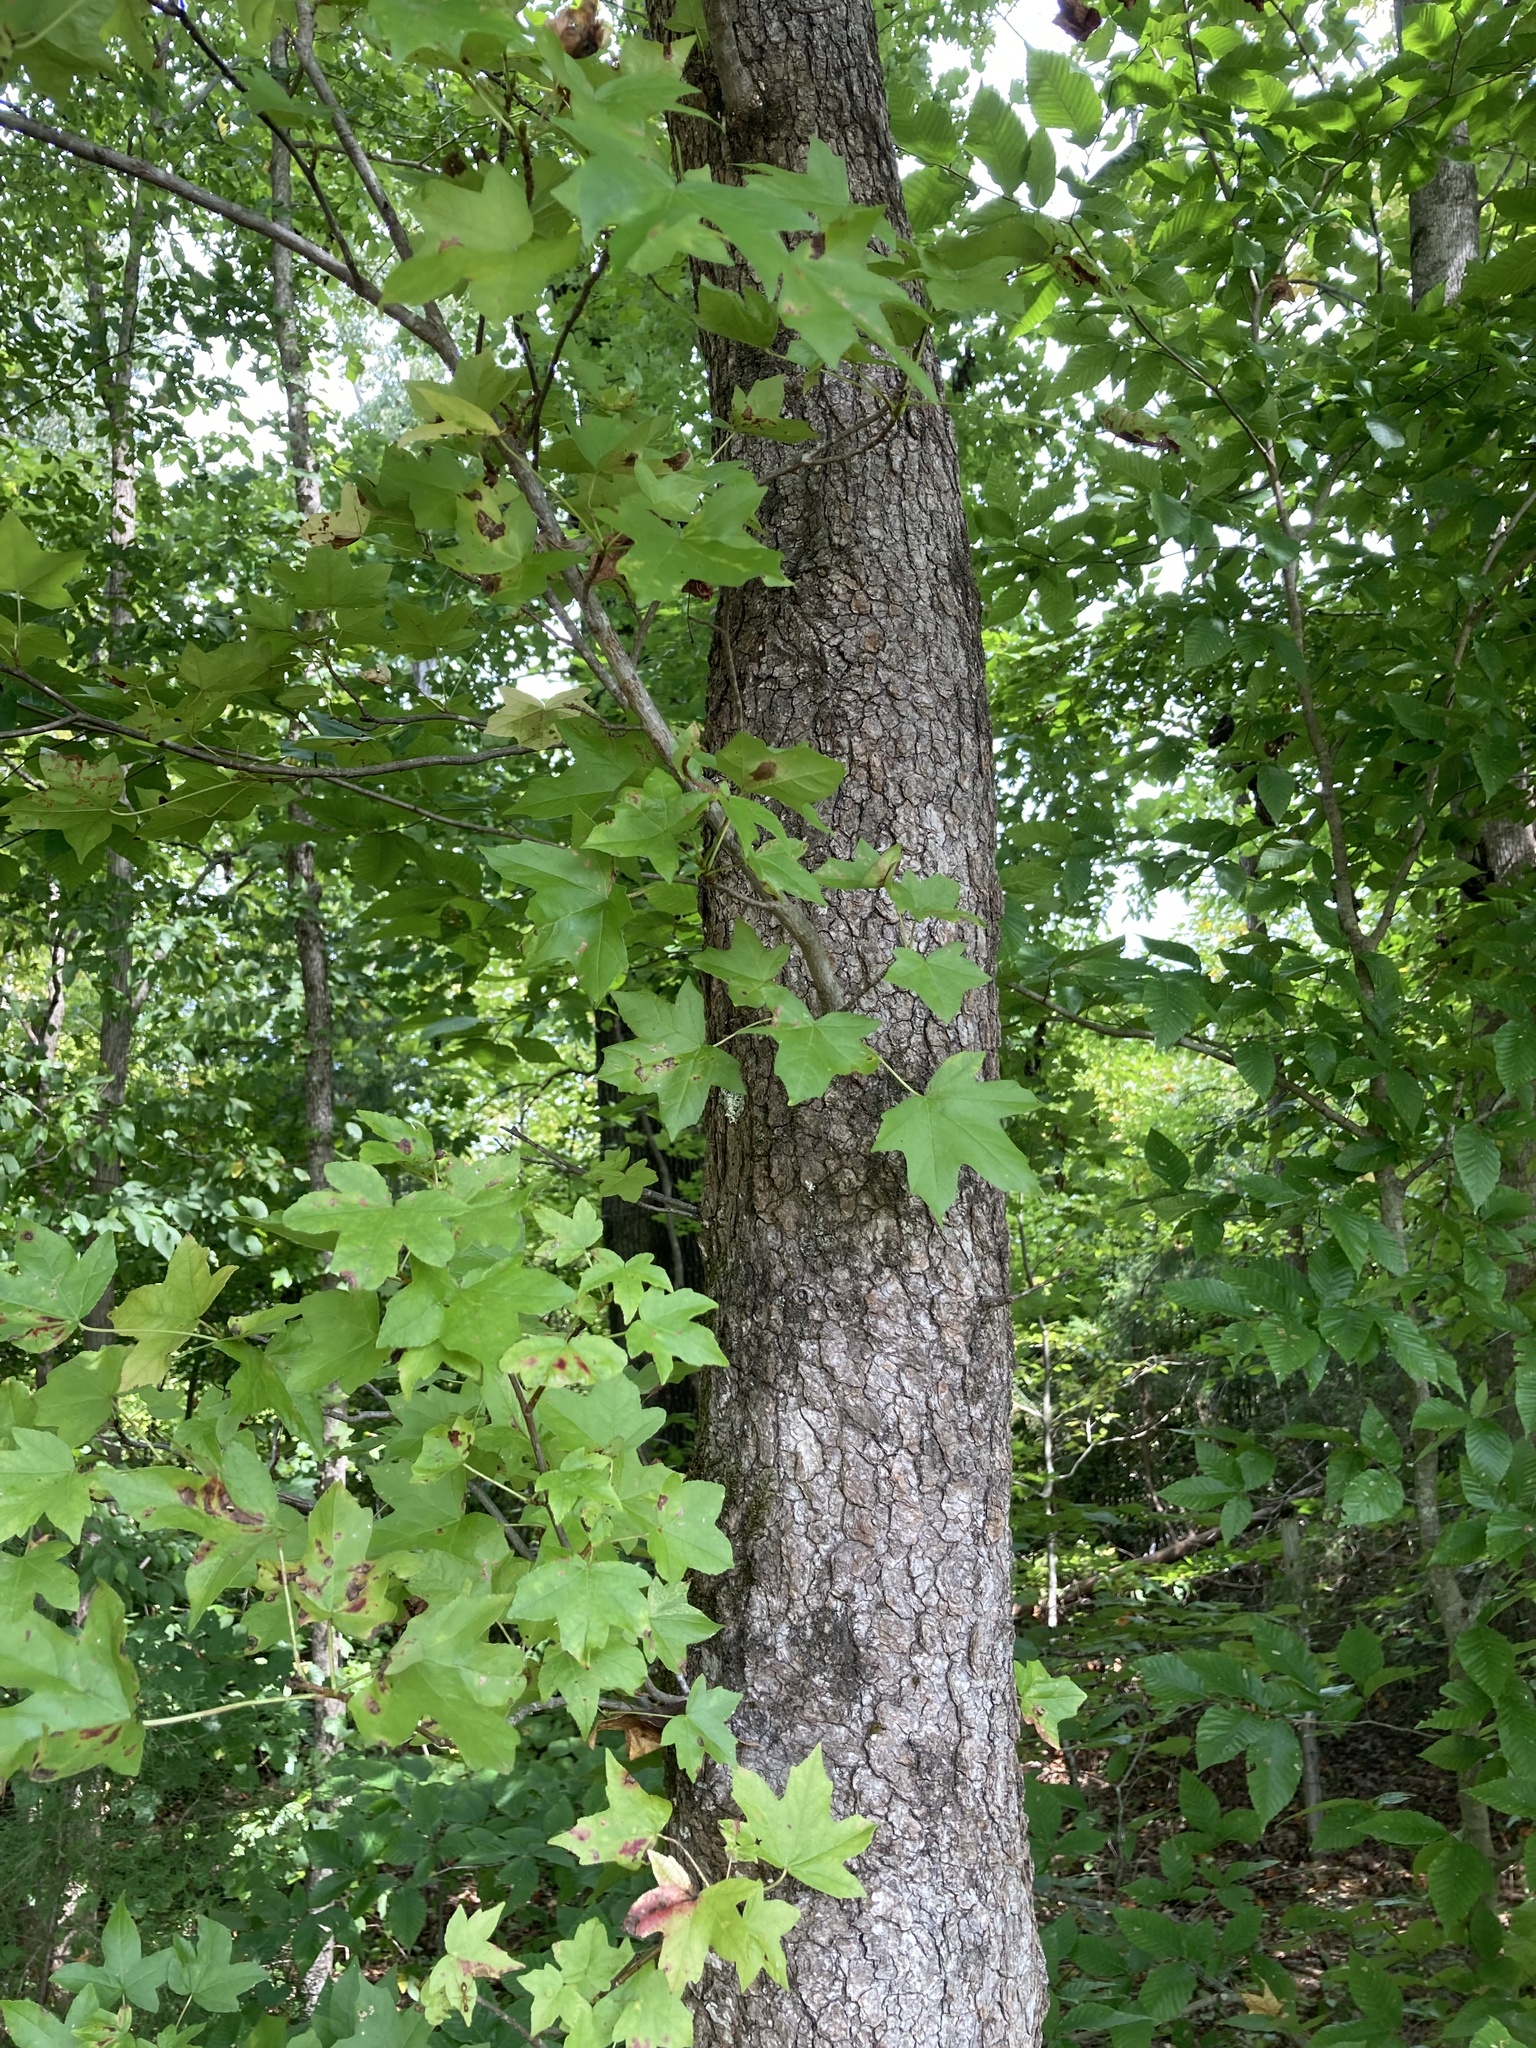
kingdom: Plantae
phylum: Tracheophyta
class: Magnoliopsida
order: Saxifragales
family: Altingiaceae
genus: Liquidambar
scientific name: Liquidambar styraciflua
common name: Sweet gum
